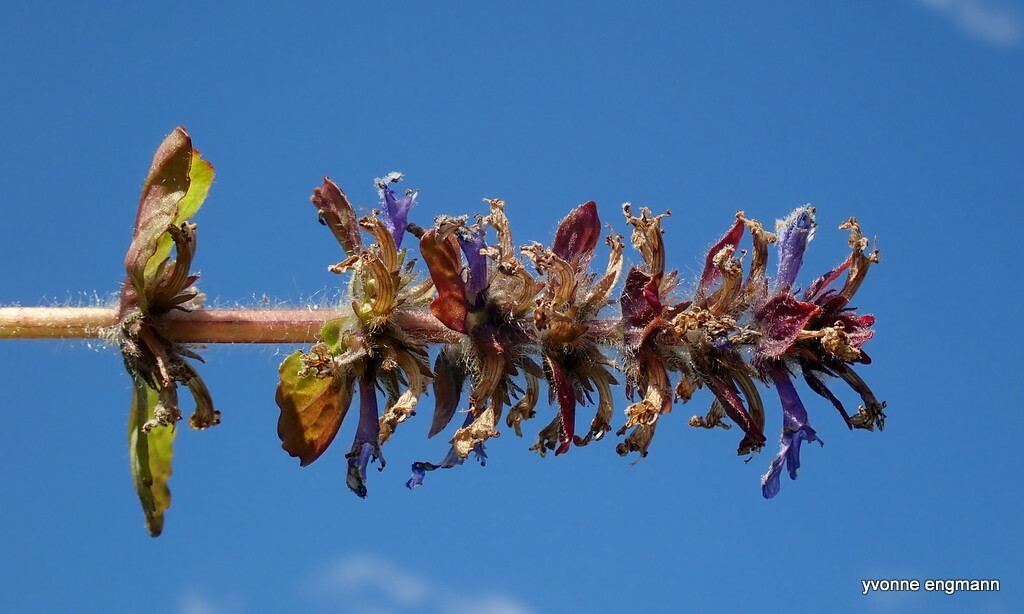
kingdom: Plantae
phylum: Tracheophyta
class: Magnoliopsida
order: Lamiales
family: Lamiaceae
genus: Ajuga
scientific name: Ajuga reptans
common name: Bugle
